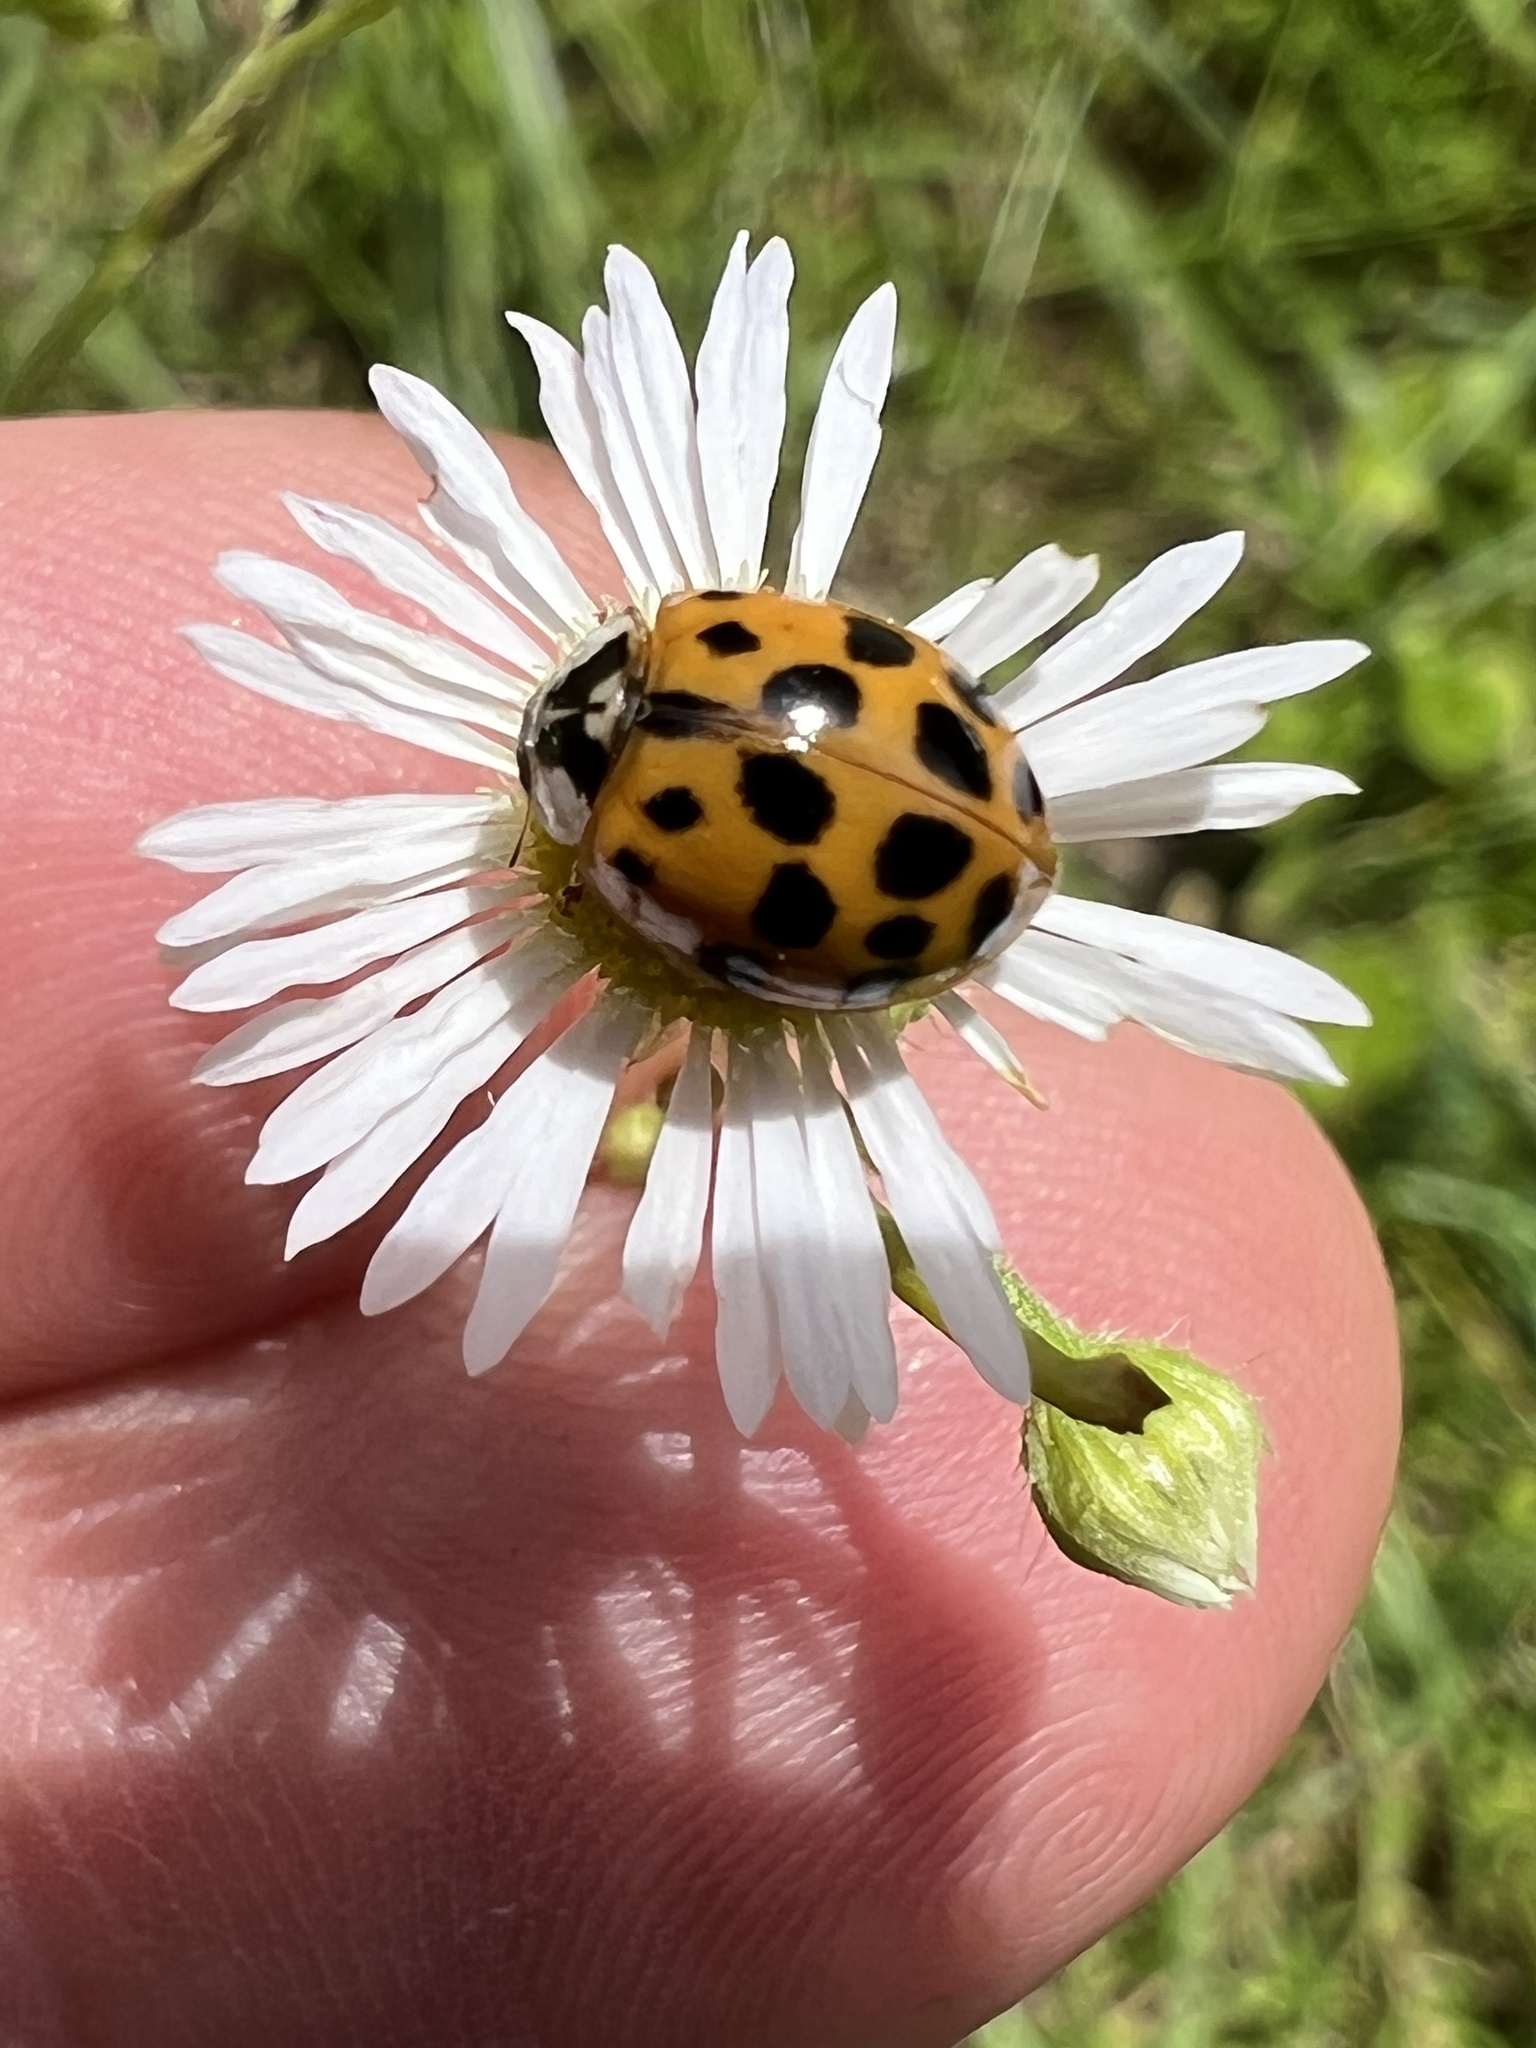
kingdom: Animalia
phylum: Arthropoda
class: Insecta
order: Coleoptera
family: Coccinellidae
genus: Harmonia
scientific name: Harmonia axyridis
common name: Harlequin ladybird
